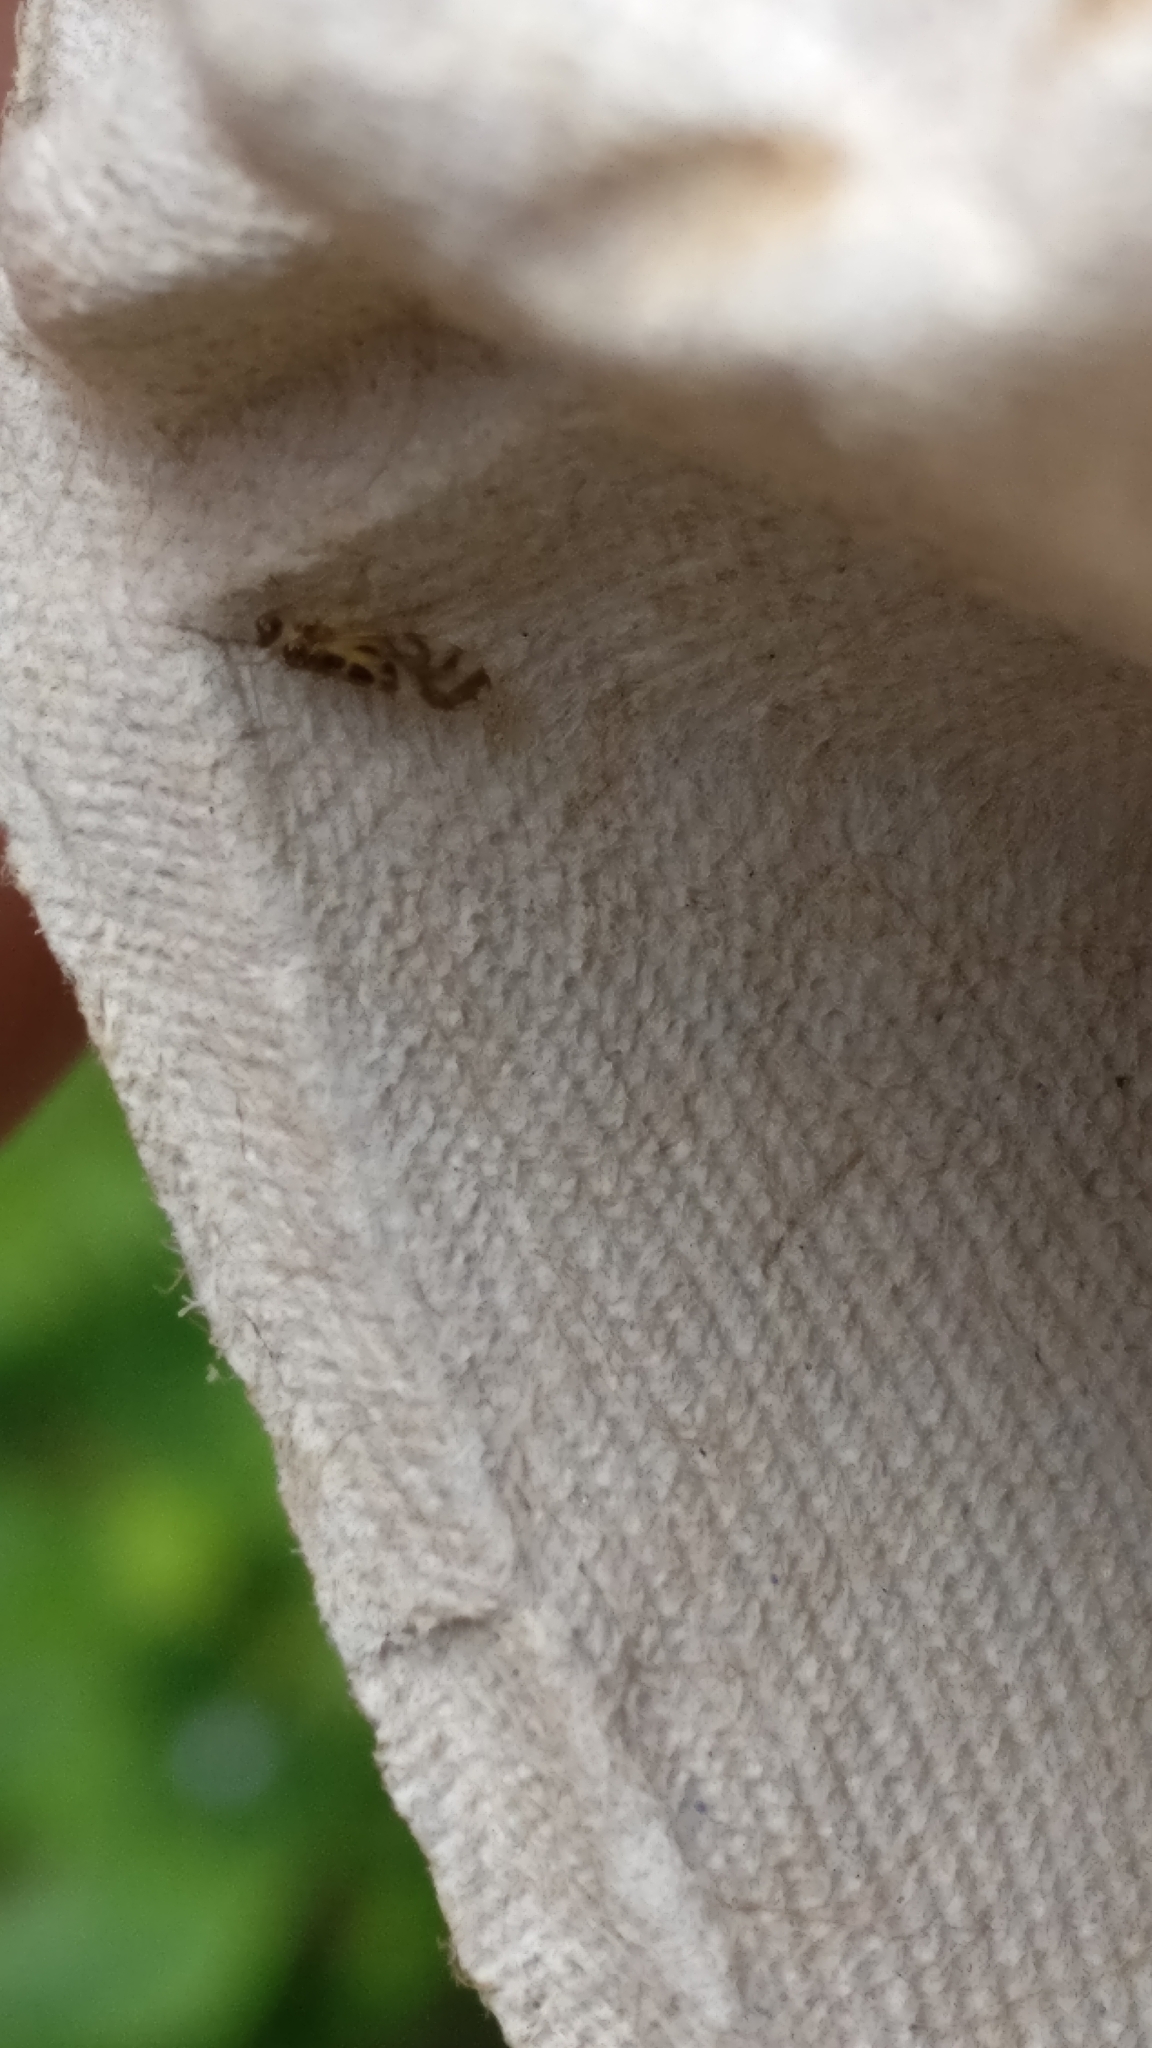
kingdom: Animalia
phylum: Arthropoda
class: Insecta
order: Psocodea
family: Stenopsocidae
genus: Graphopsocus
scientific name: Graphopsocus cruciatus
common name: Lizard bark louse
